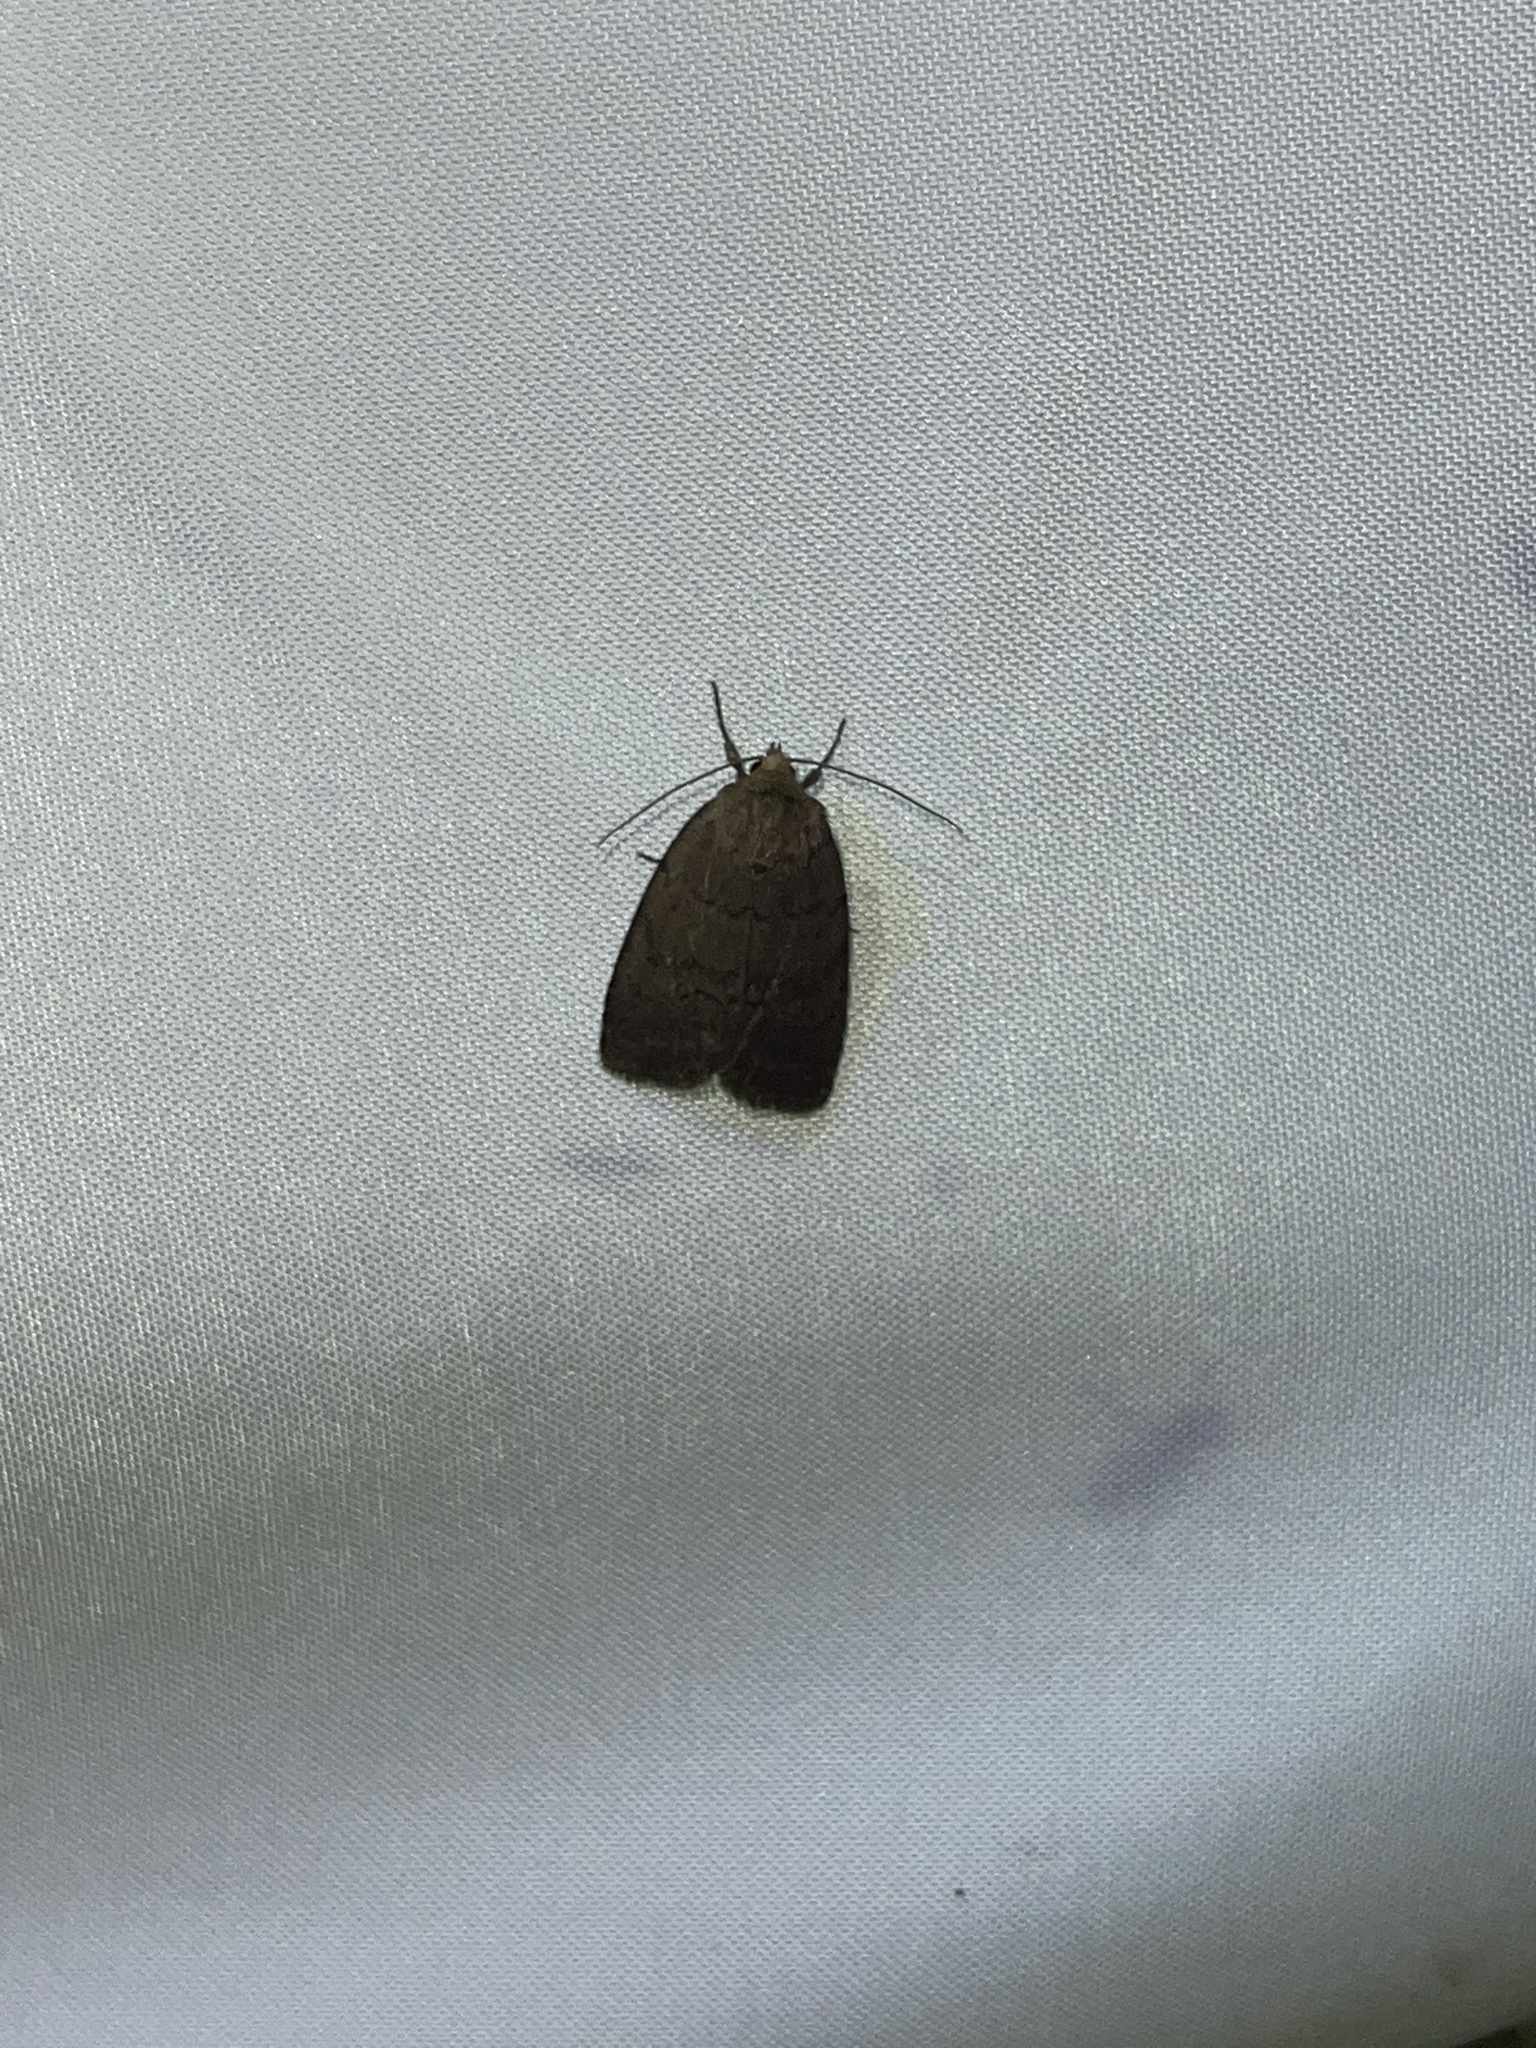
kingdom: Animalia
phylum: Arthropoda
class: Insecta
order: Lepidoptera
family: Noctuidae
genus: Athetis
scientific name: Athetis tarda
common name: Slowpoke moth
